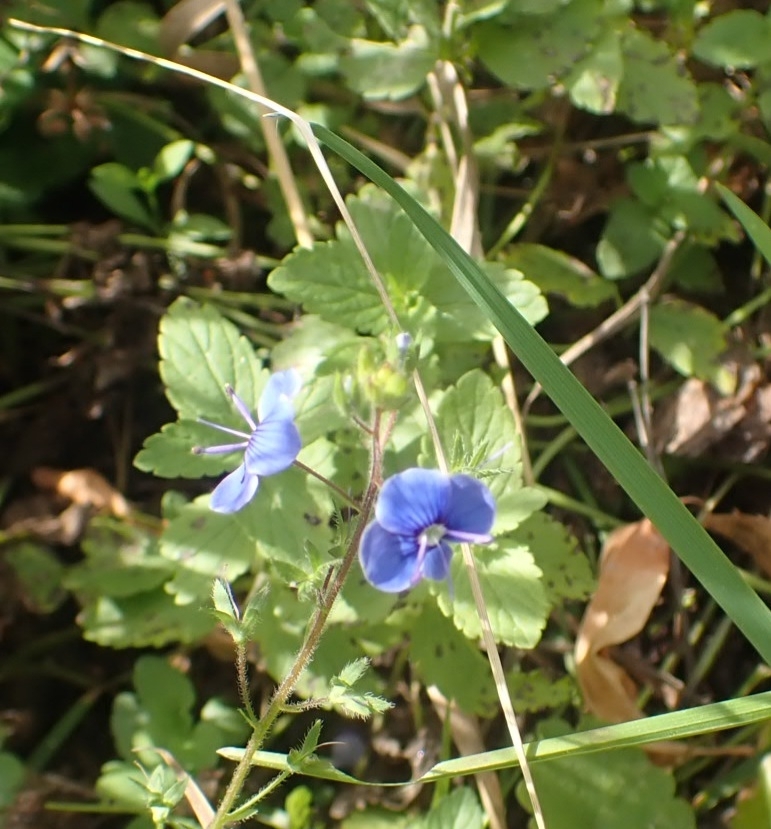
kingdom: Plantae
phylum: Tracheophyta
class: Magnoliopsida
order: Lamiales
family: Plantaginaceae
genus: Veronica
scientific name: Veronica chamaedrys
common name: Germander speedwell
